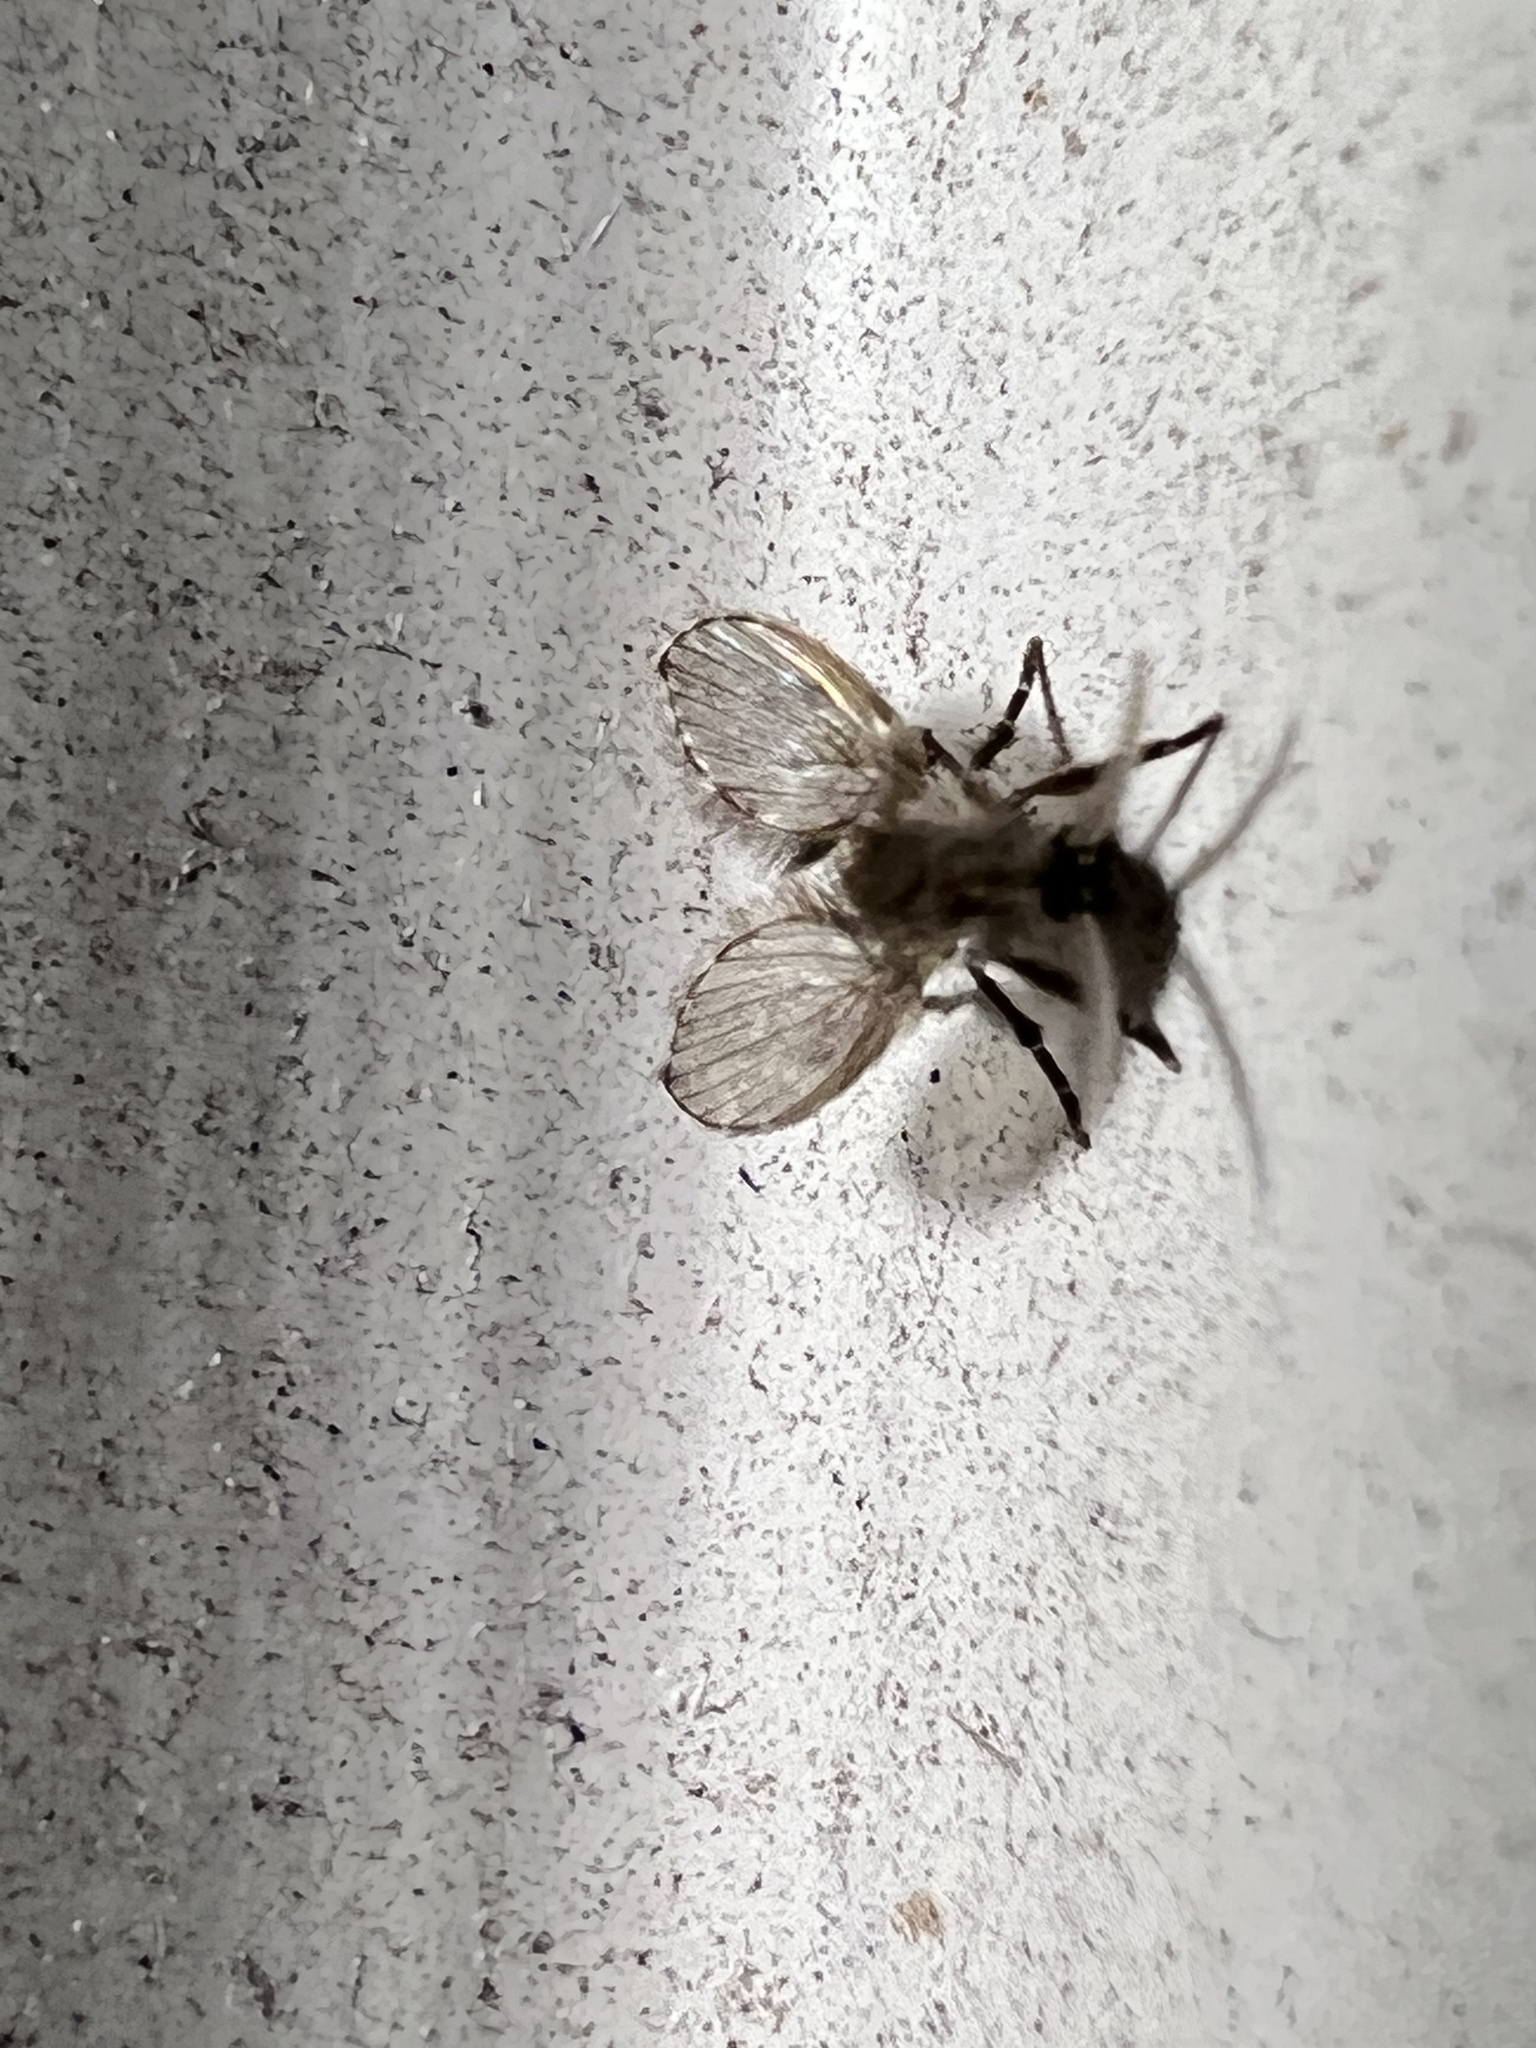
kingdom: Animalia
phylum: Arthropoda
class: Insecta
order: Diptera
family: Psychodidae
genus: Clogmia
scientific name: Clogmia albipunctatus
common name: White-spotted moth fly
